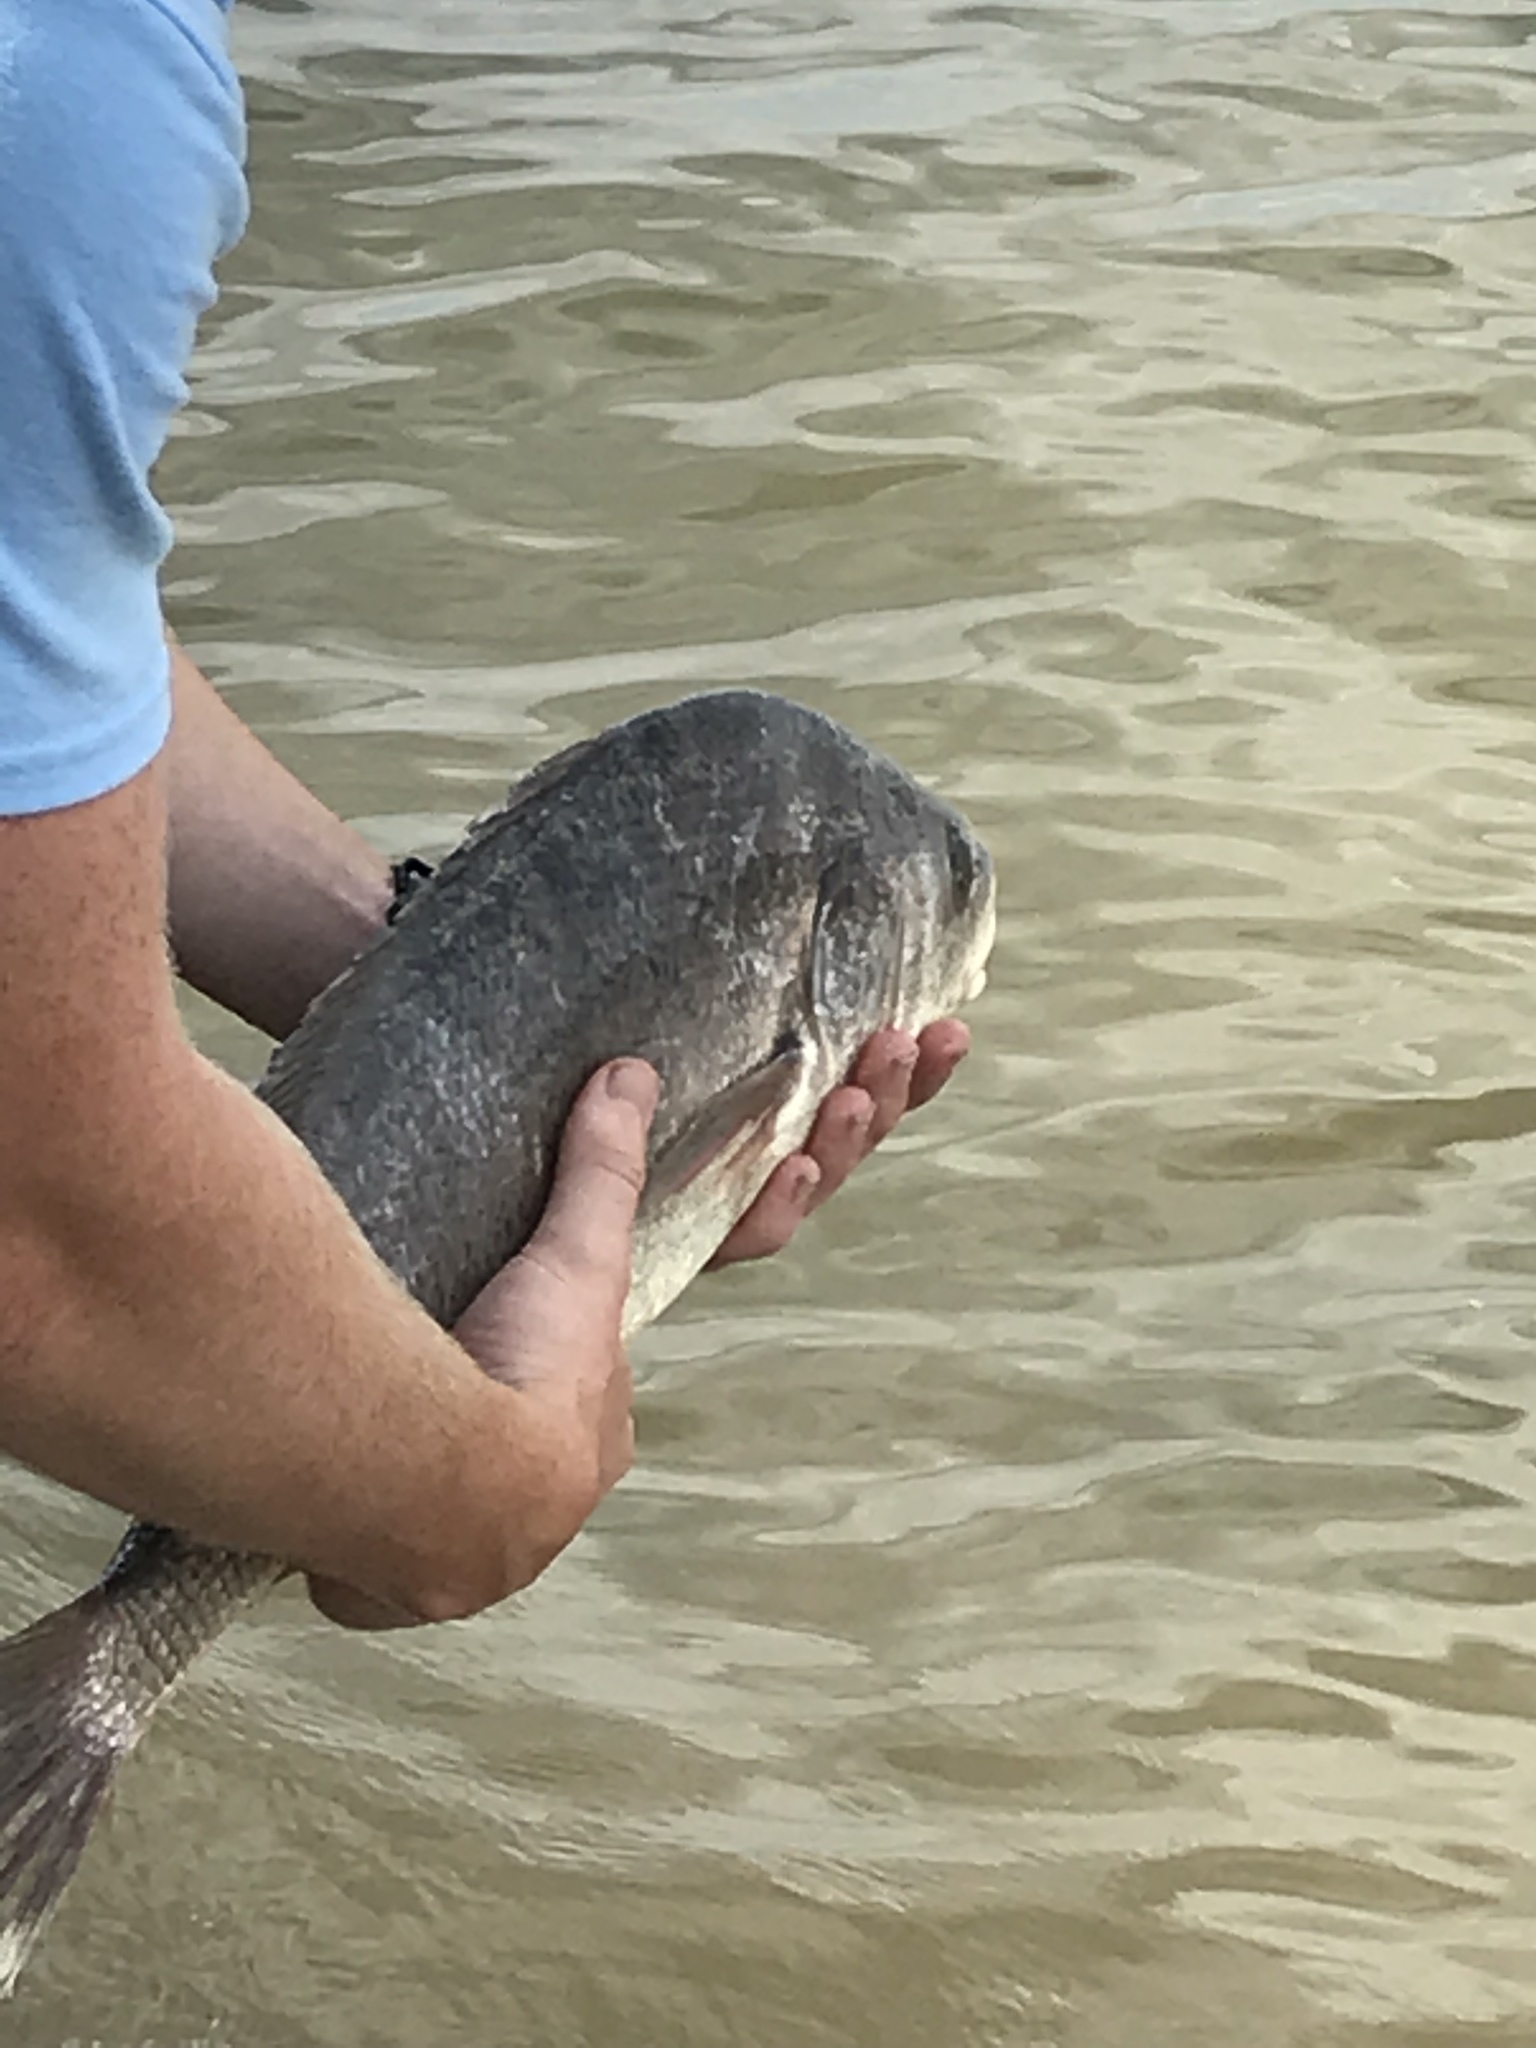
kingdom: Animalia
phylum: Chordata
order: Perciformes
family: Sciaenidae
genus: Aplodinotus
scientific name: Aplodinotus grunniens
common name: Freshwater drum
